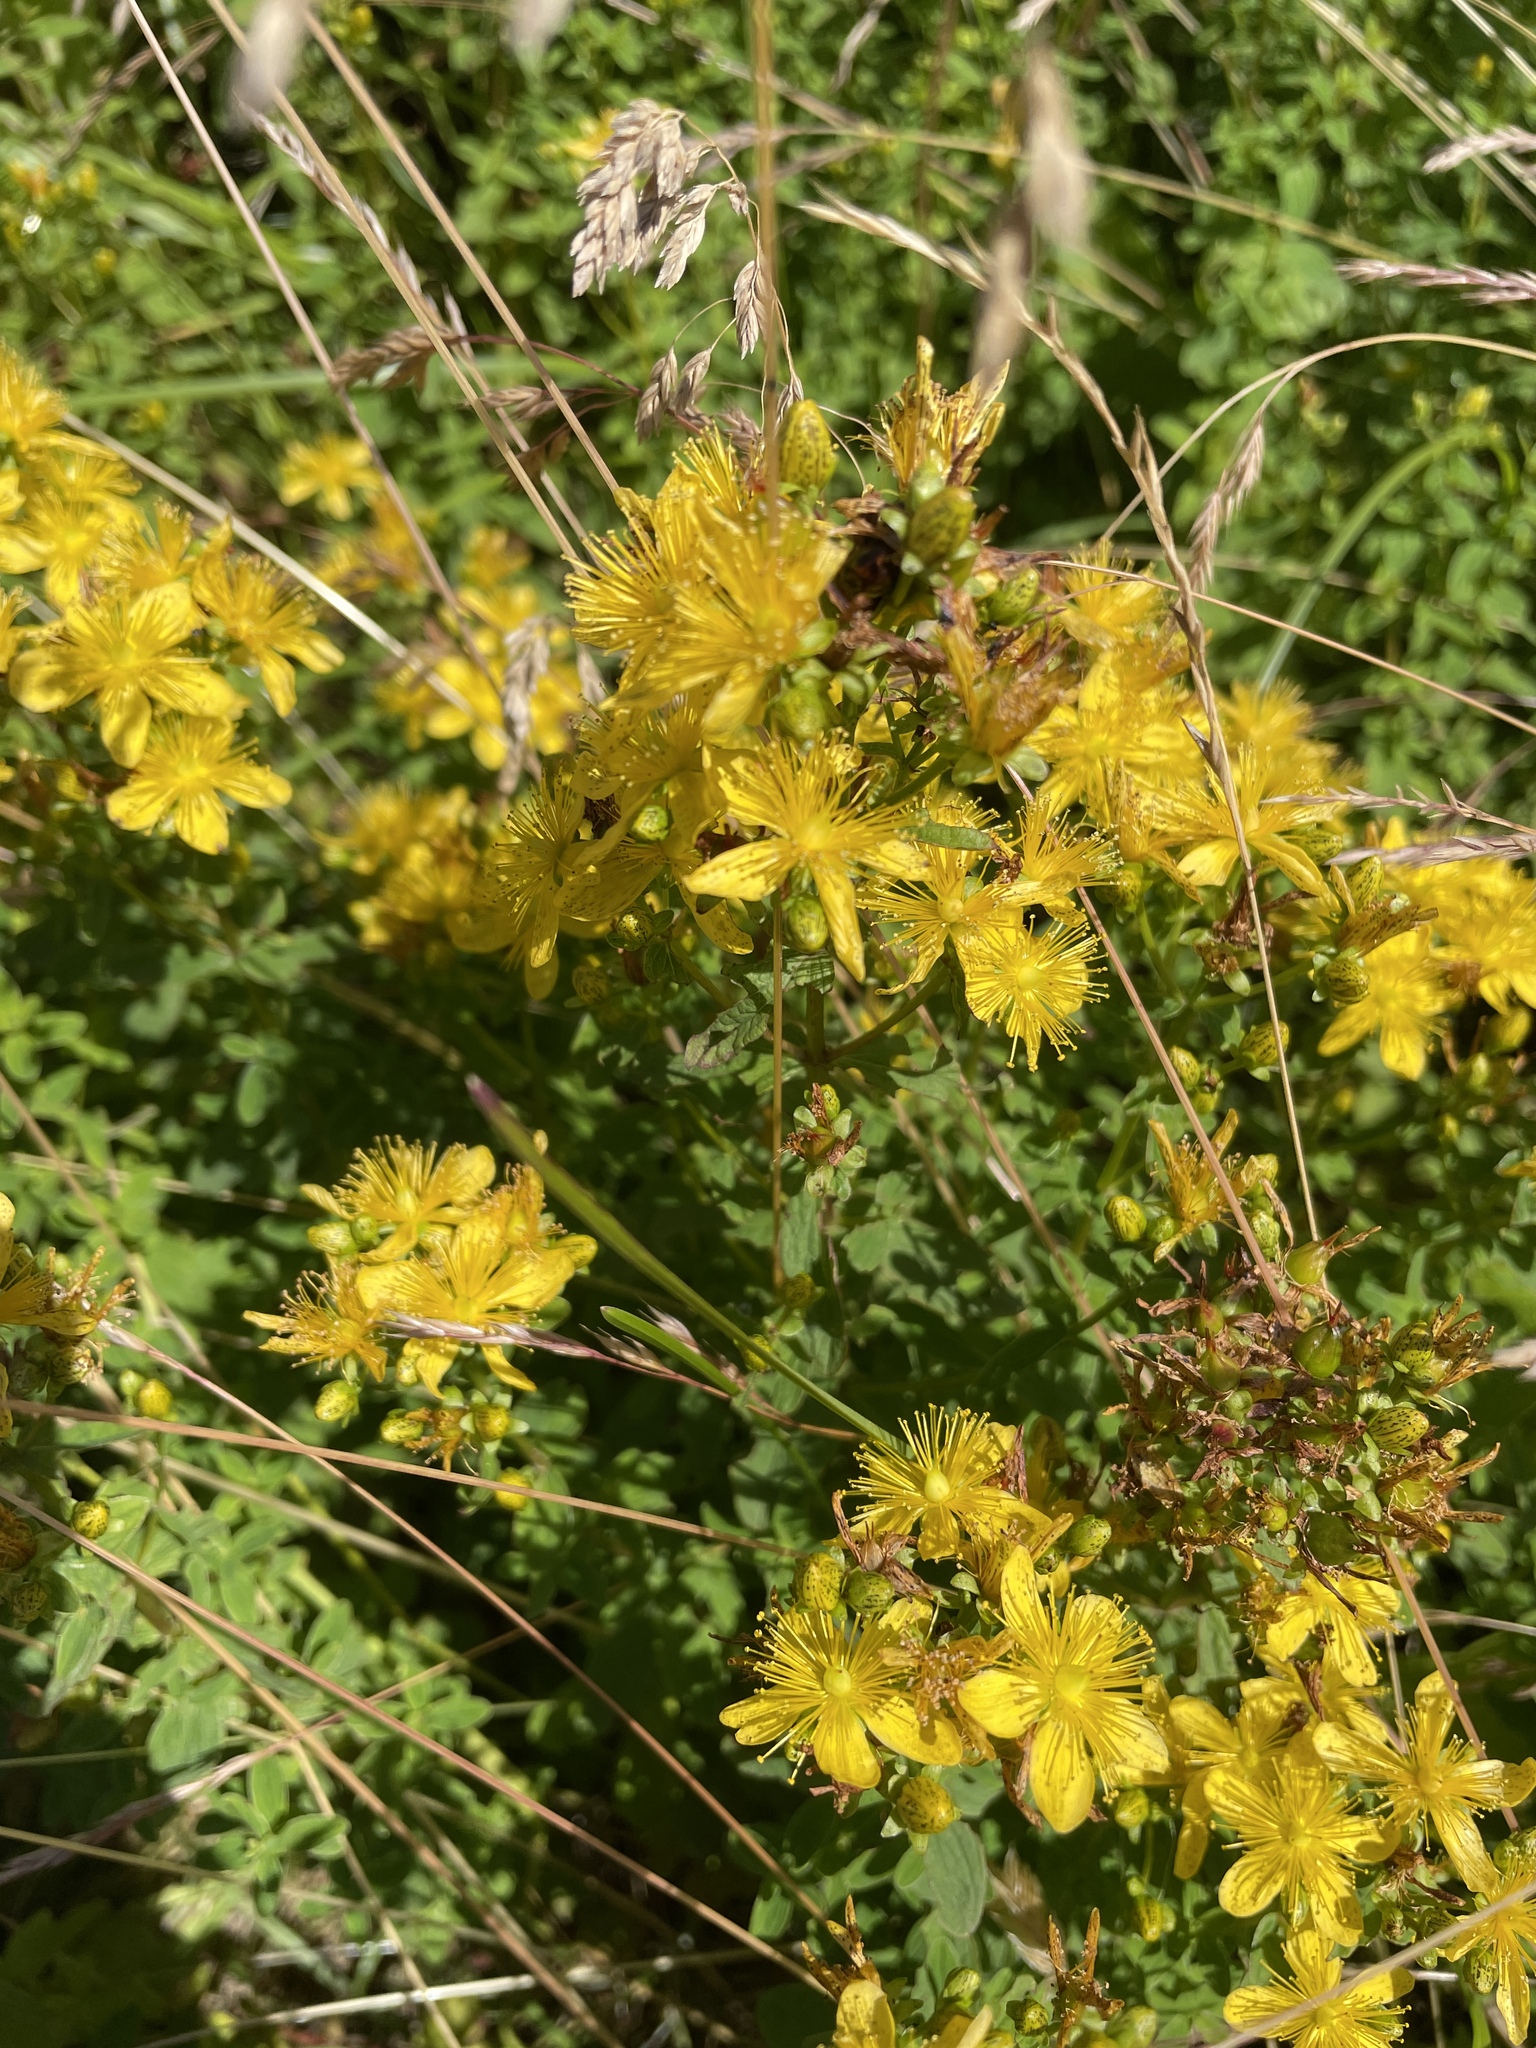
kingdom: Plantae
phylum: Tracheophyta
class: Magnoliopsida
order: Malpighiales
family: Hypericaceae
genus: Hypericum
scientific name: Hypericum maculatum
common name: Imperforate st. john's-wort
